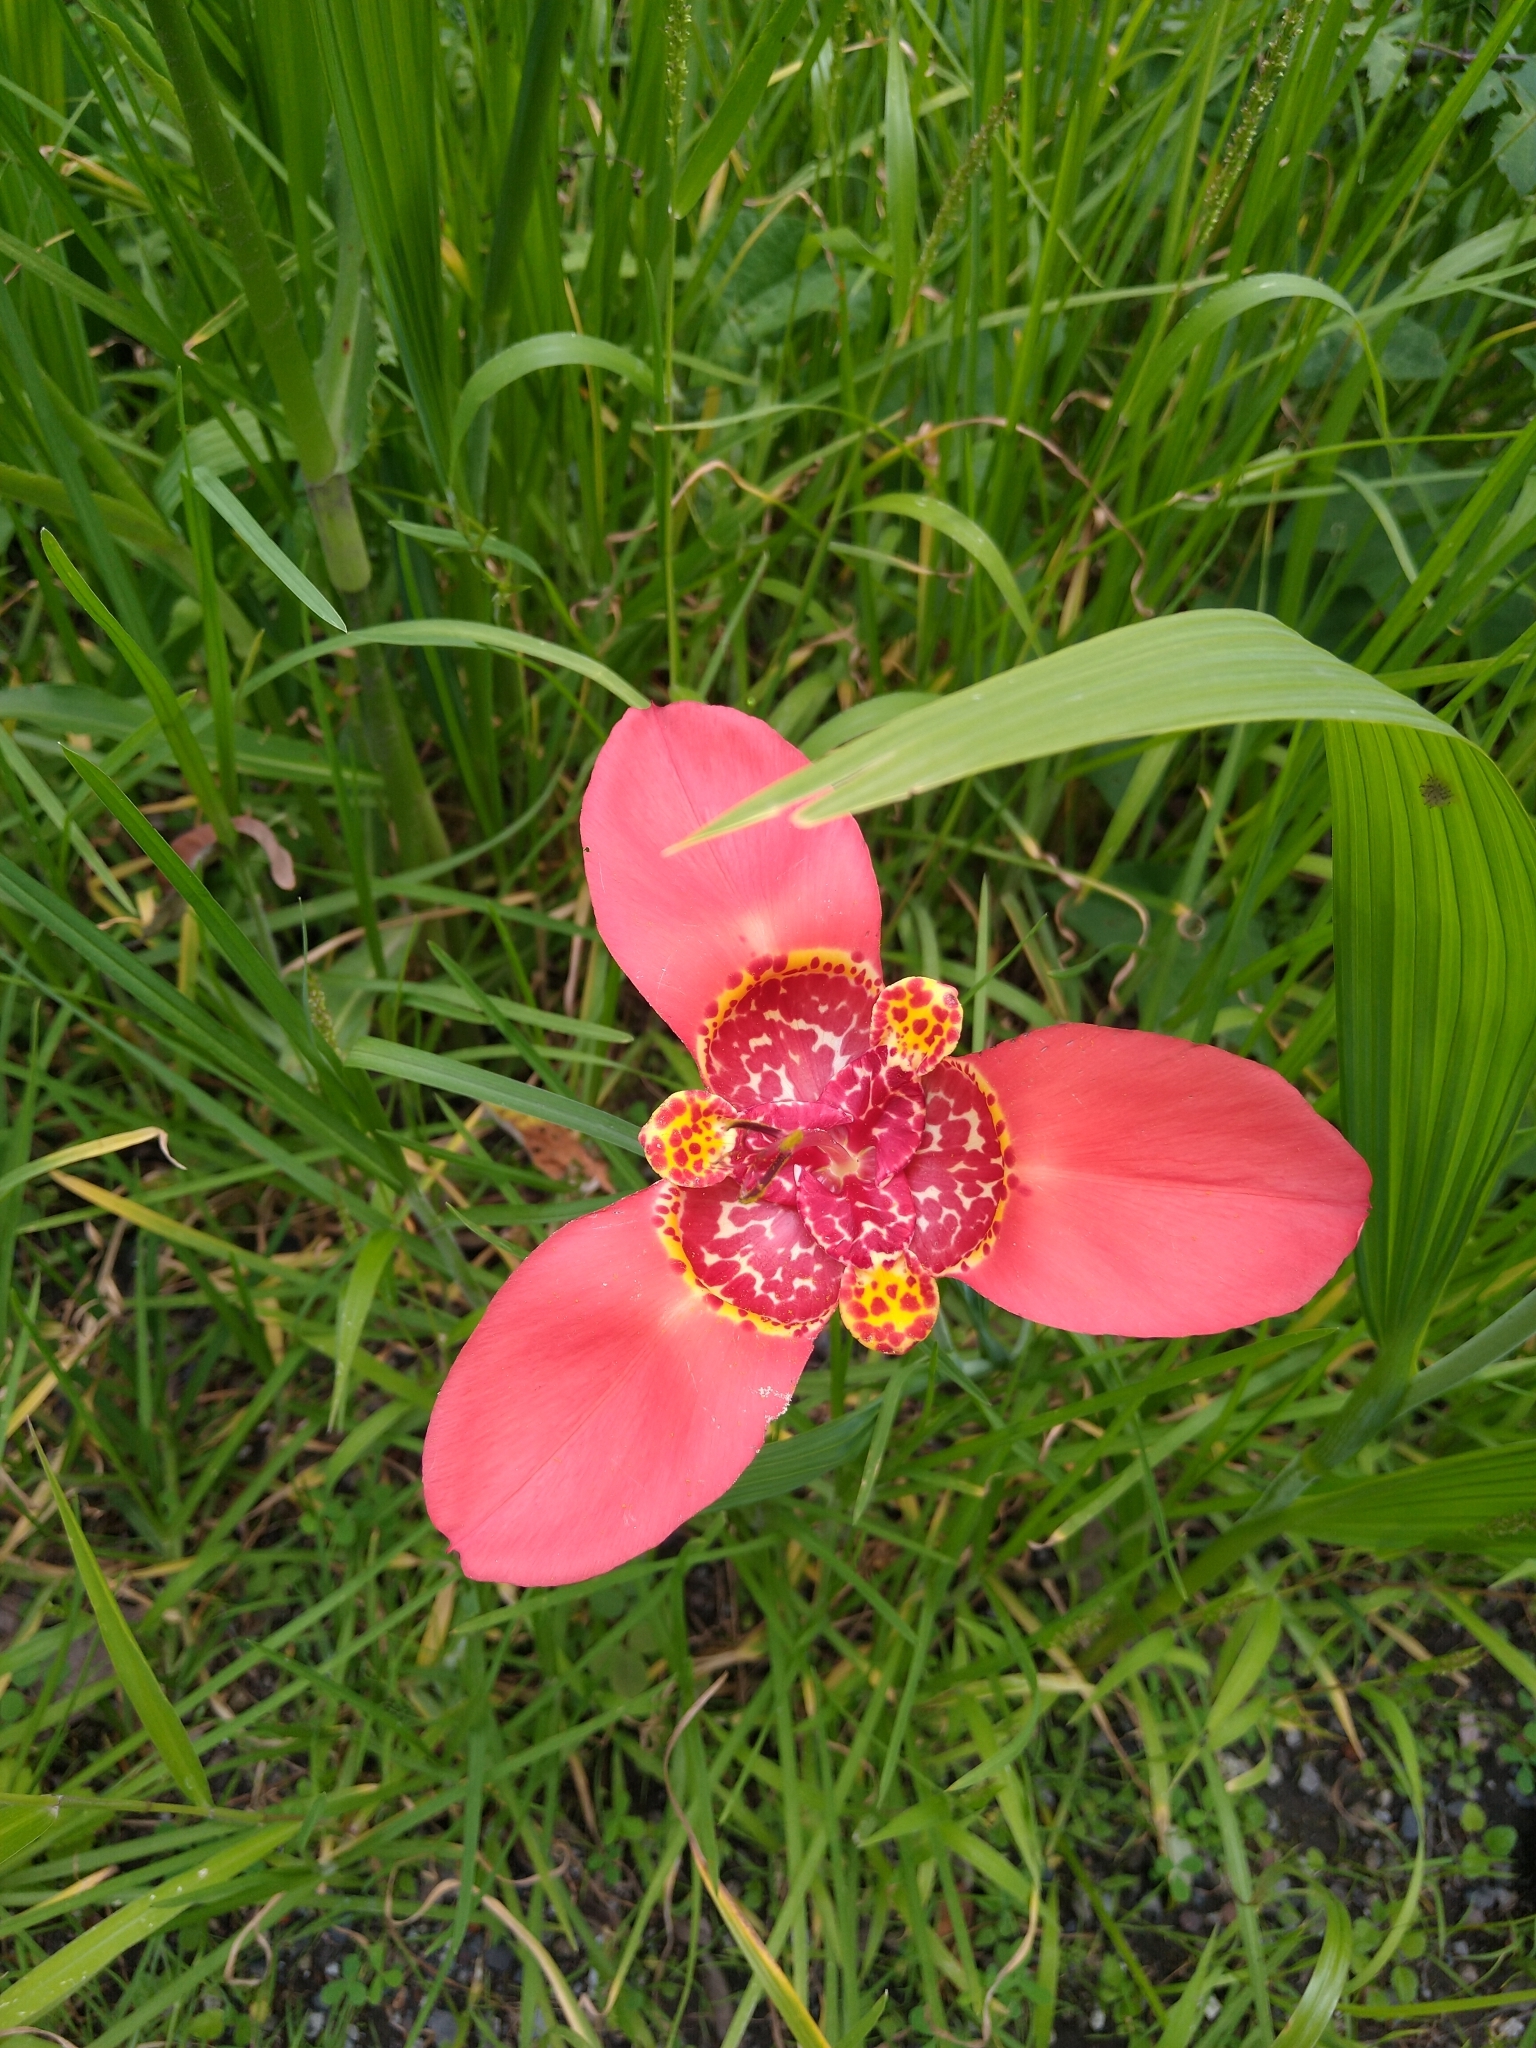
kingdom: Plantae
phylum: Tracheophyta
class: Liliopsida
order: Asparagales
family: Iridaceae
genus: Tigridia
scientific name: Tigridia pavonia
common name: Peacock-flower
